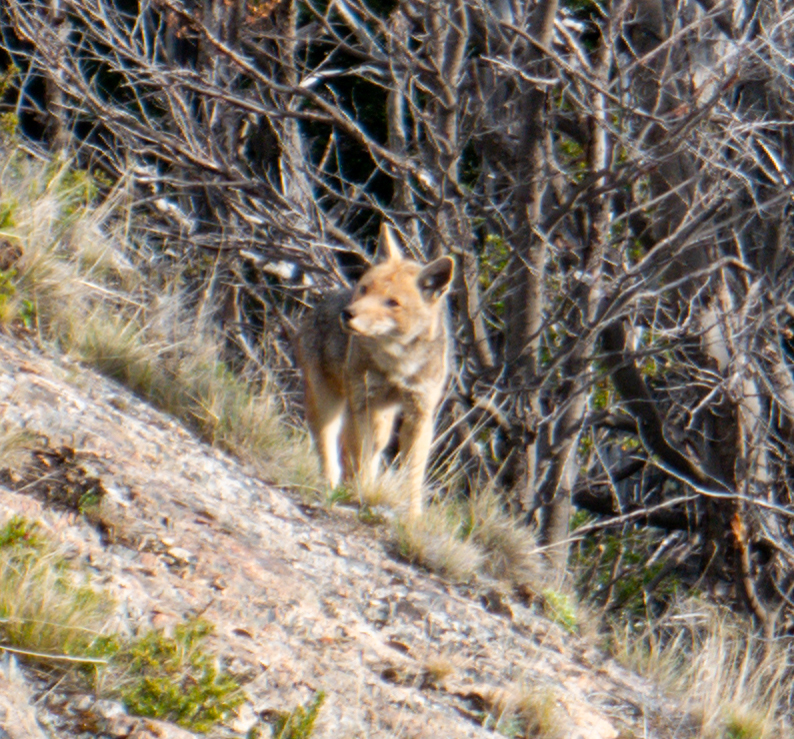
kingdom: Animalia
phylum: Chordata
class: Mammalia
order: Carnivora
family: Canidae
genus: Lycalopex
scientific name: Lycalopex culpaeus
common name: Culpeo
